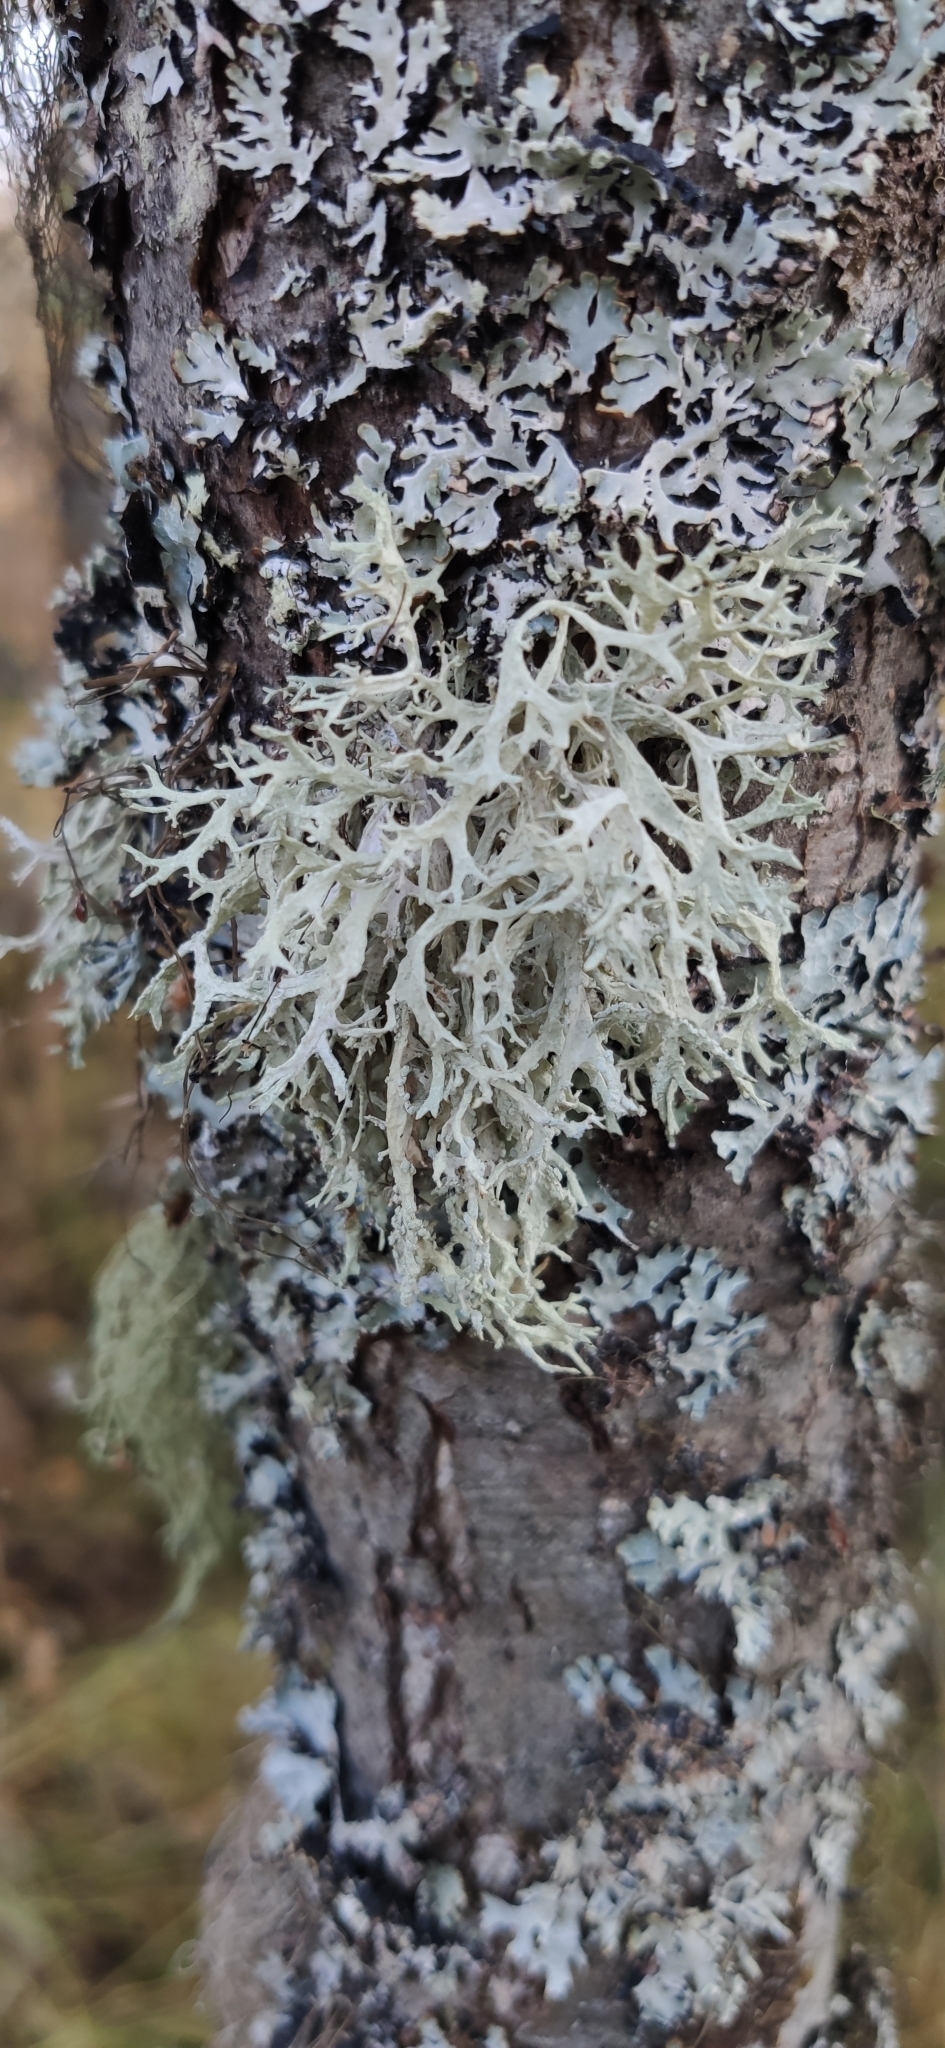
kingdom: Fungi
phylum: Ascomycota
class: Lecanoromycetes
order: Lecanorales
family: Parmeliaceae
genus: Evernia
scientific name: Evernia prunastri
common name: Oak moss
